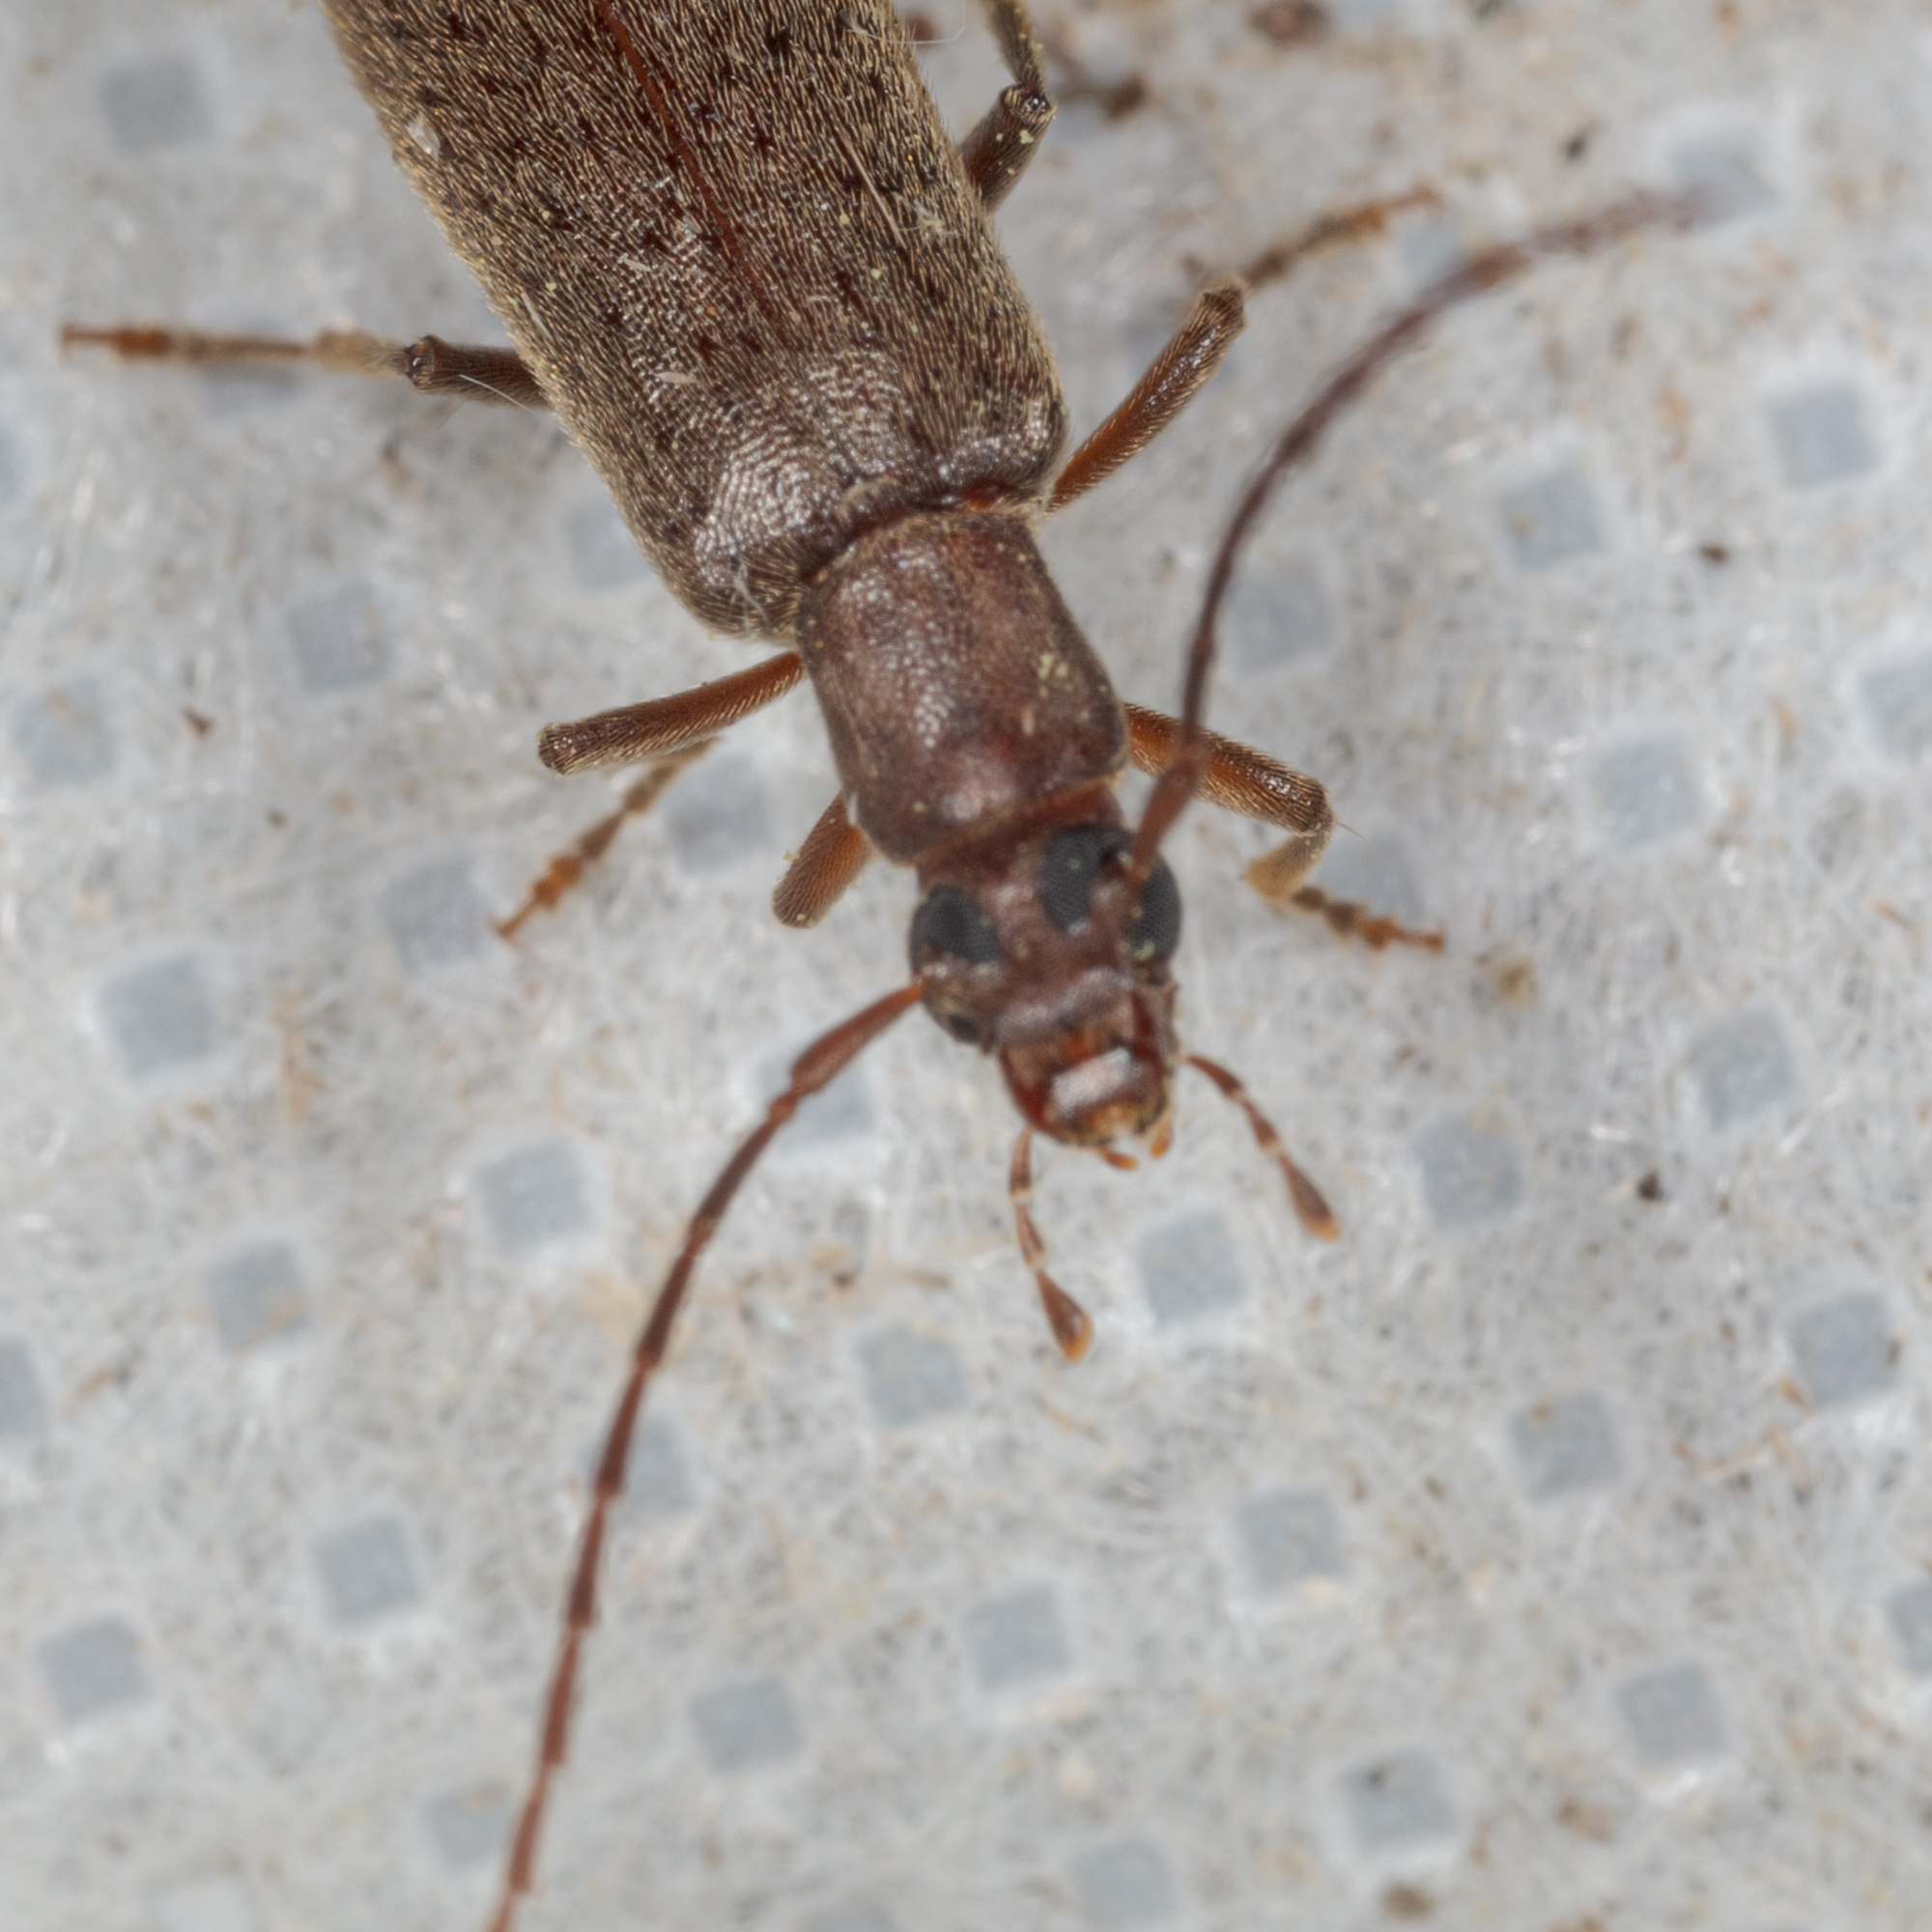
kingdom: Animalia
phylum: Arthropoda
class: Insecta
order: Coleoptera
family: Oedemeridae
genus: Sparedrus
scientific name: Sparedrus aspersus
